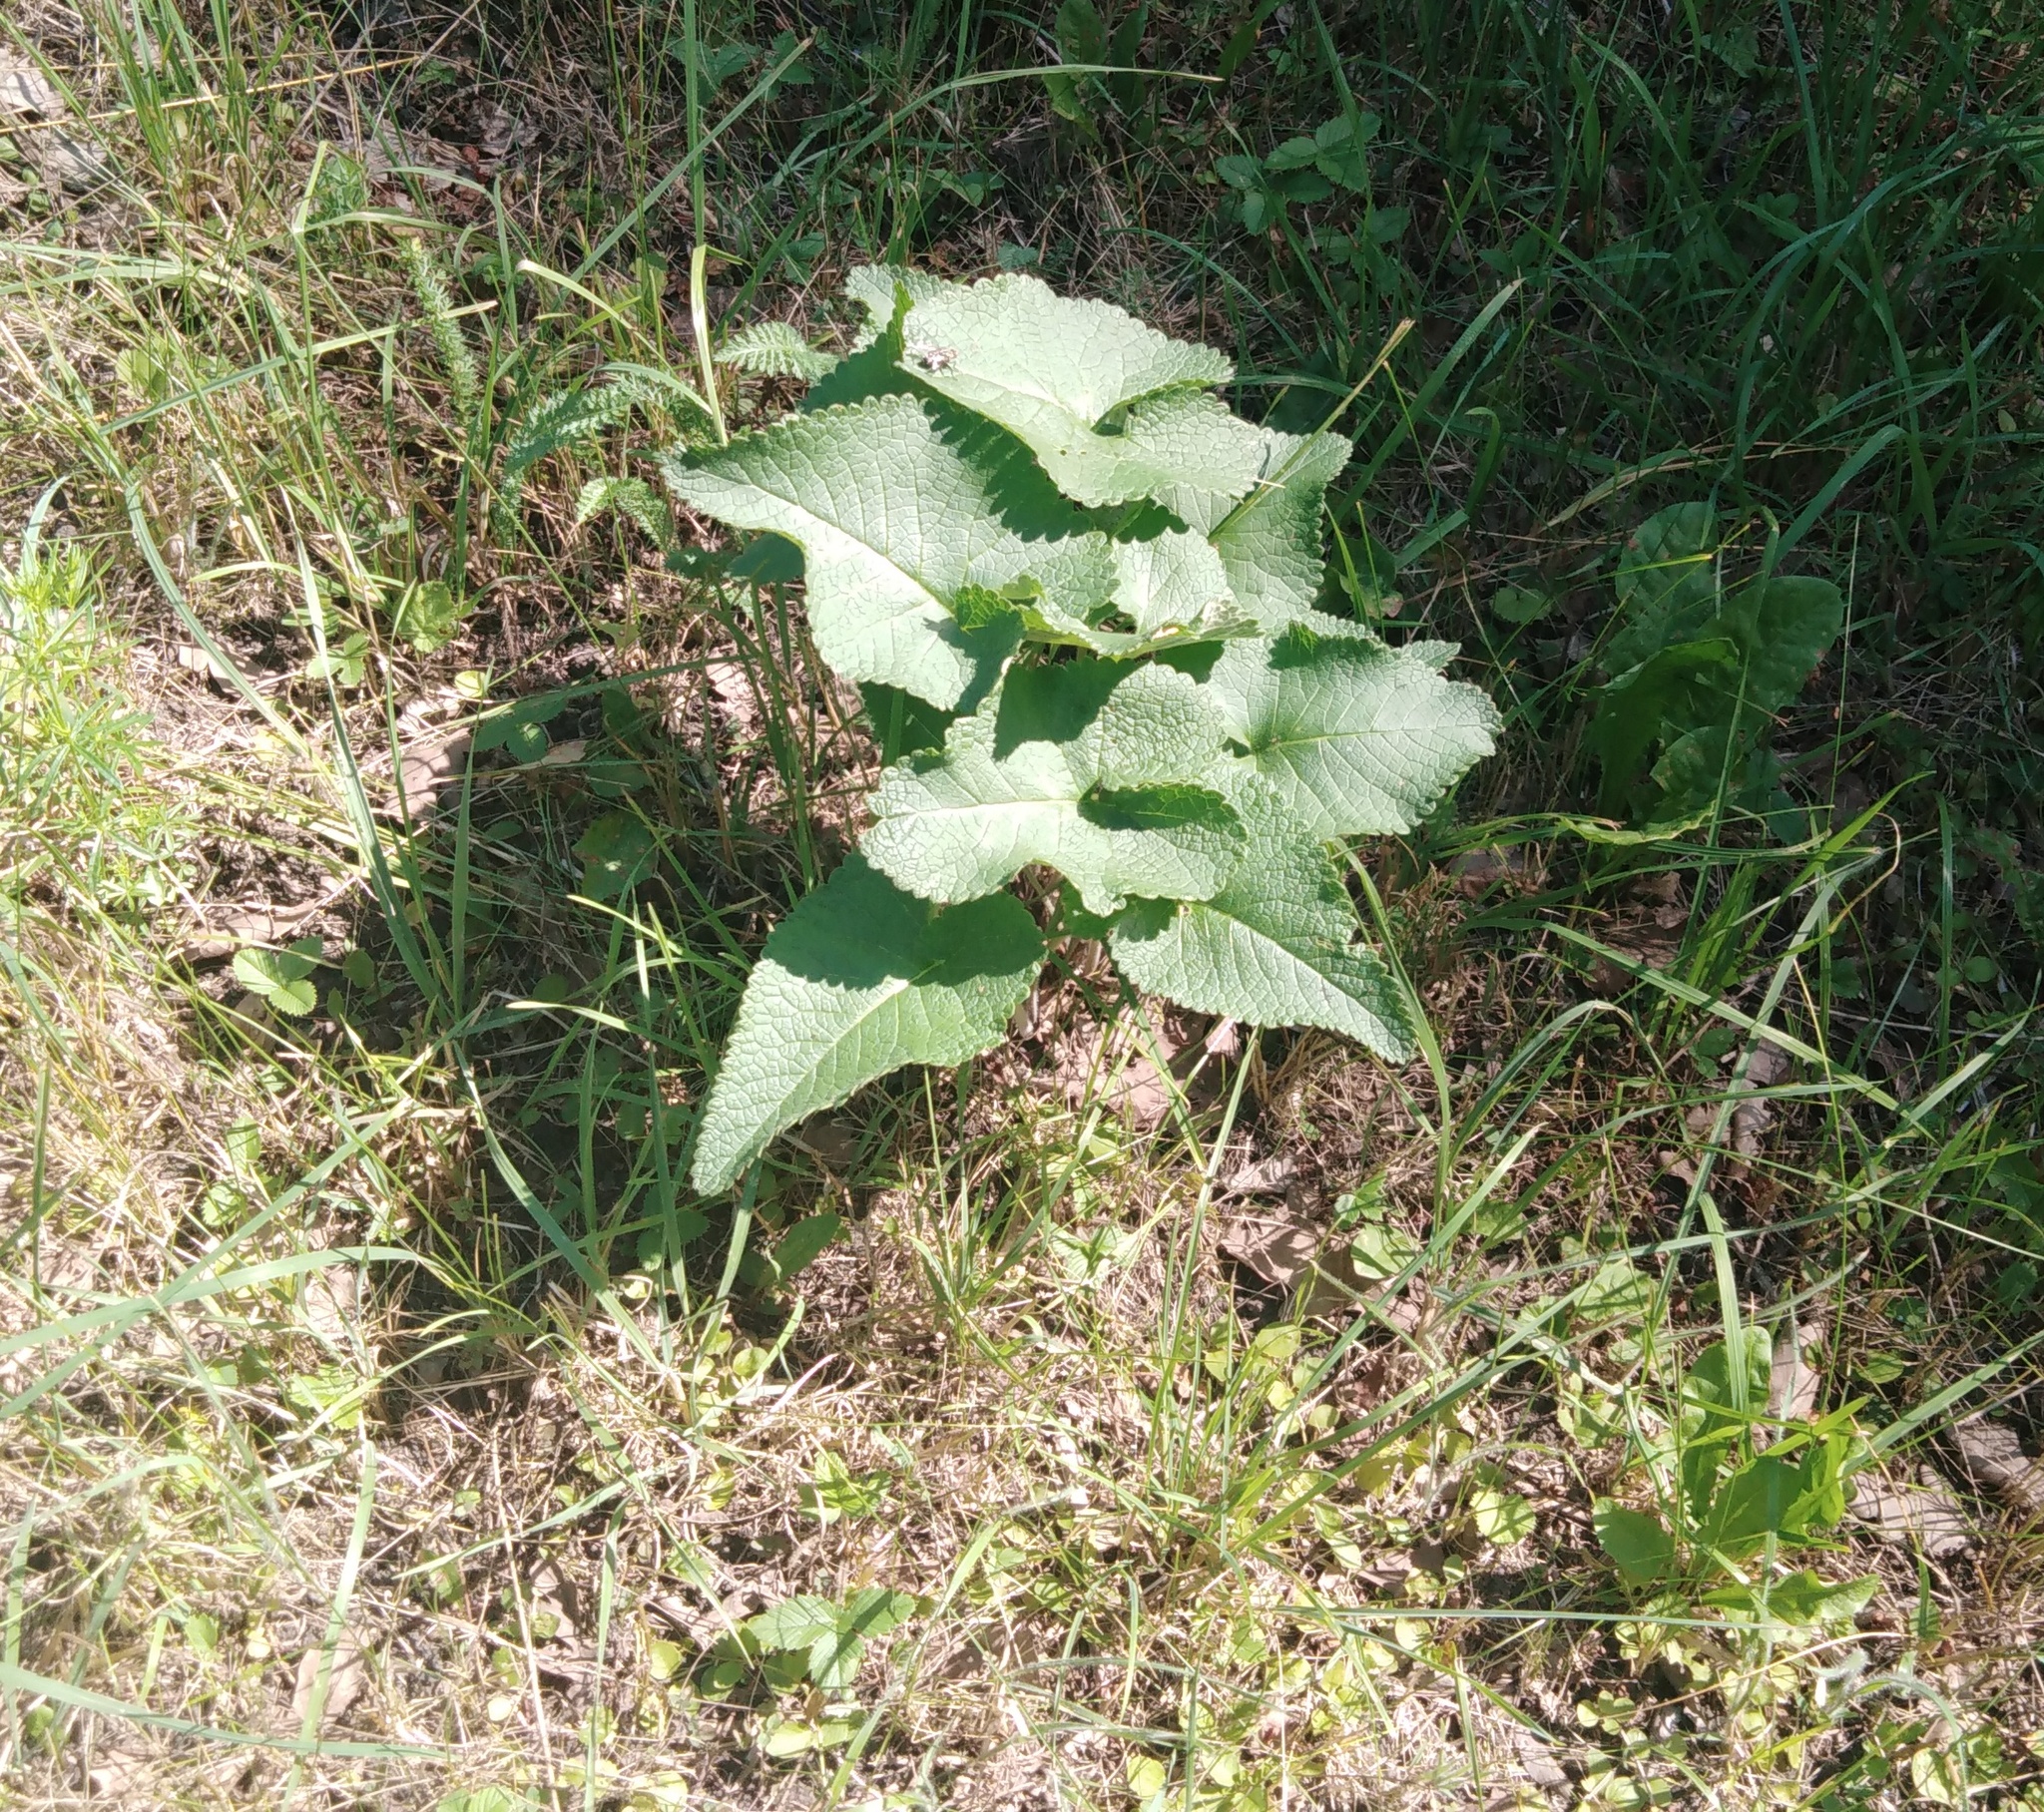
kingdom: Plantae
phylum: Tracheophyta
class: Magnoliopsida
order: Lamiales
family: Lamiaceae
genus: Phlomoides
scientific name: Phlomoides tuberosa
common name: Tuberous jerusalem sage
